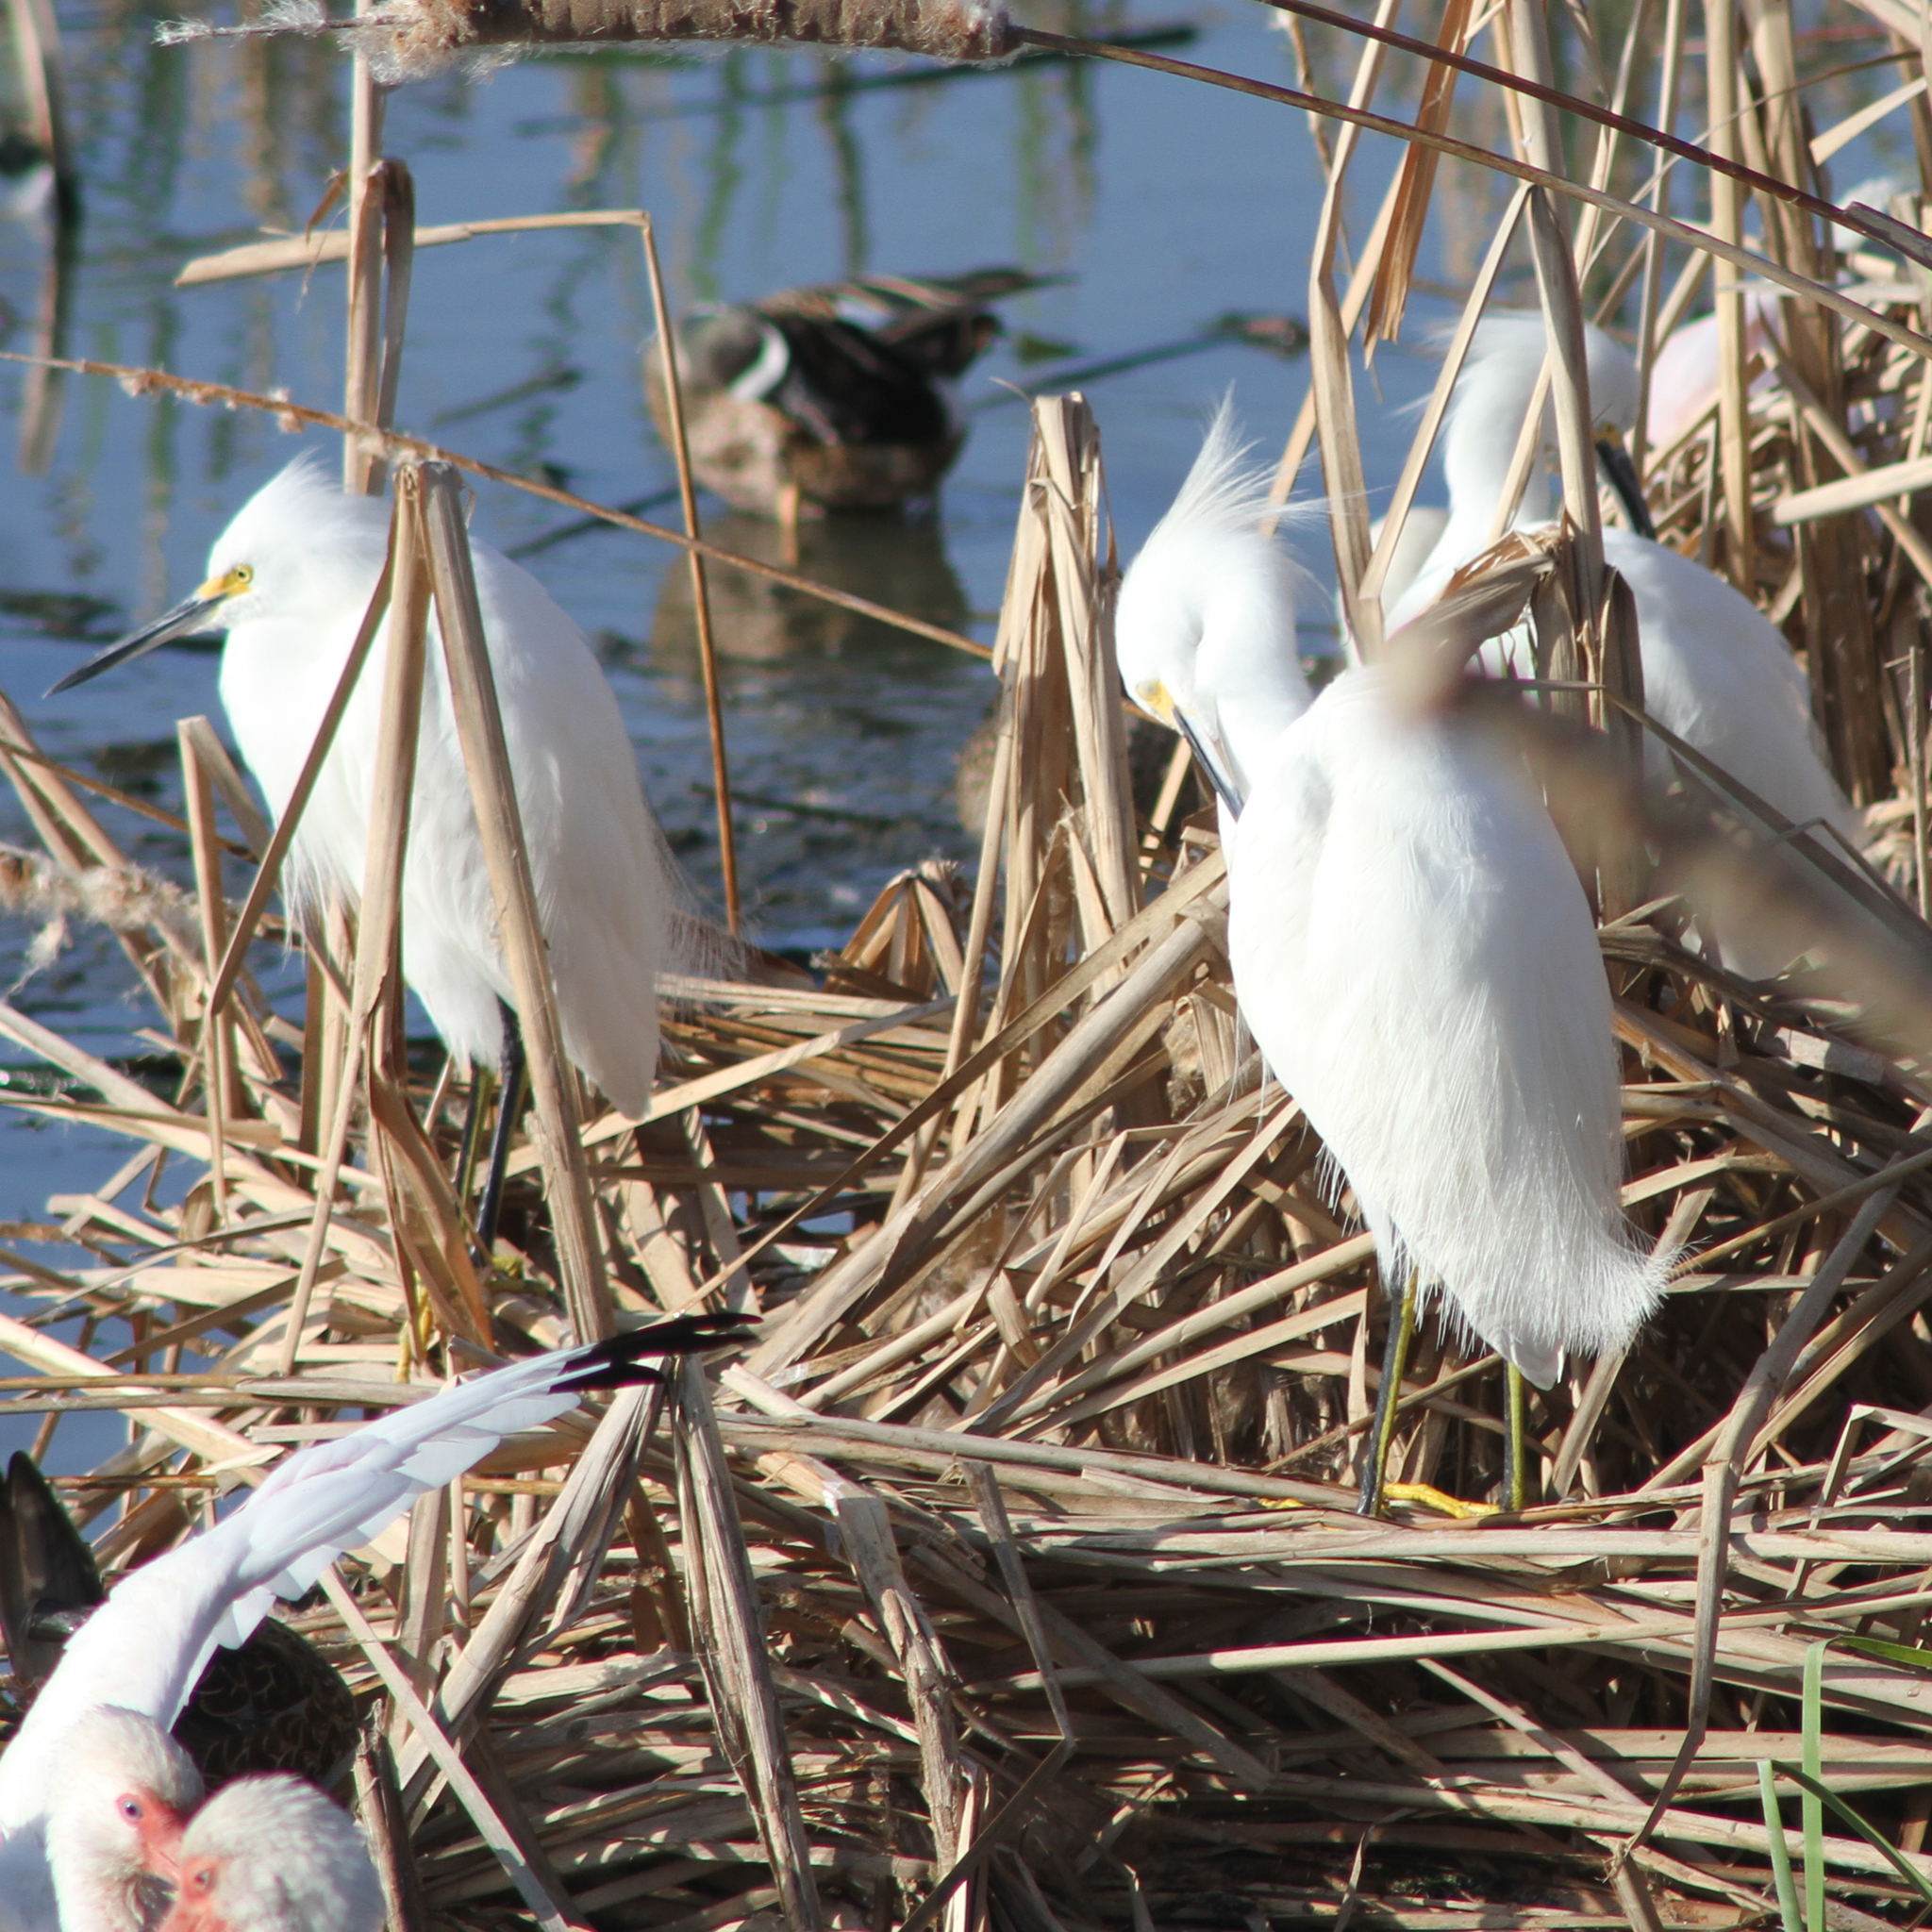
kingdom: Animalia
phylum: Chordata
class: Aves
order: Pelecaniformes
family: Ardeidae
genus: Egretta
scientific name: Egretta thula
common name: Snowy egret
